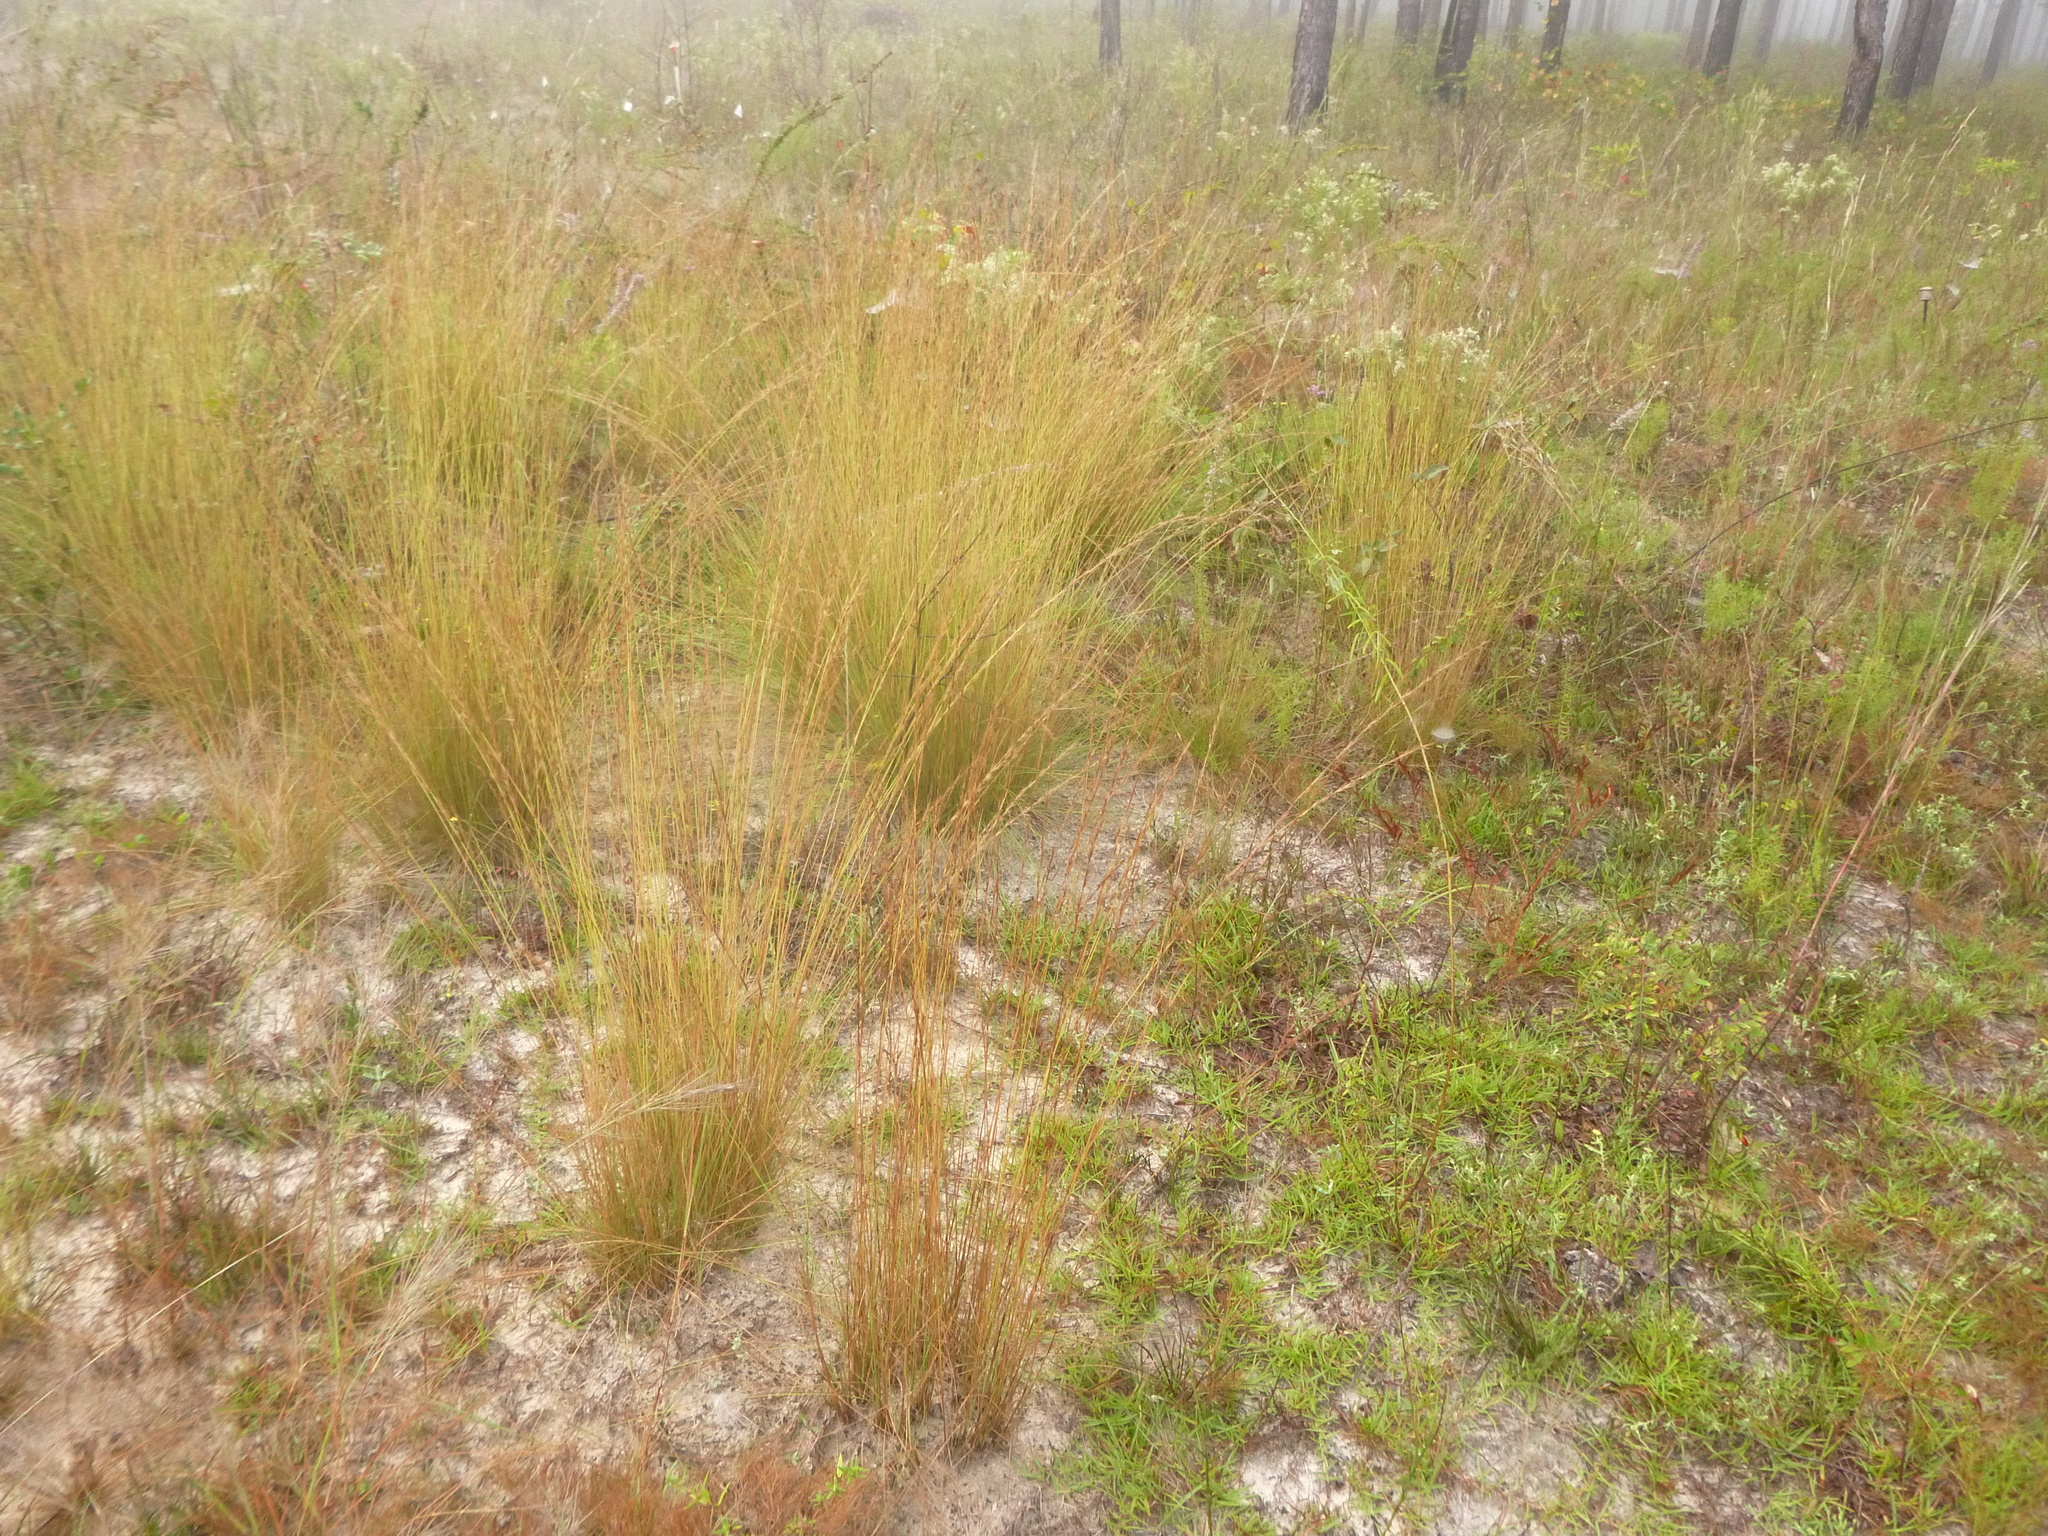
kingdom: Plantae
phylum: Tracheophyta
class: Liliopsida
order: Poales
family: Poaceae
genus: Aristida
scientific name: Aristida beyrichiana
